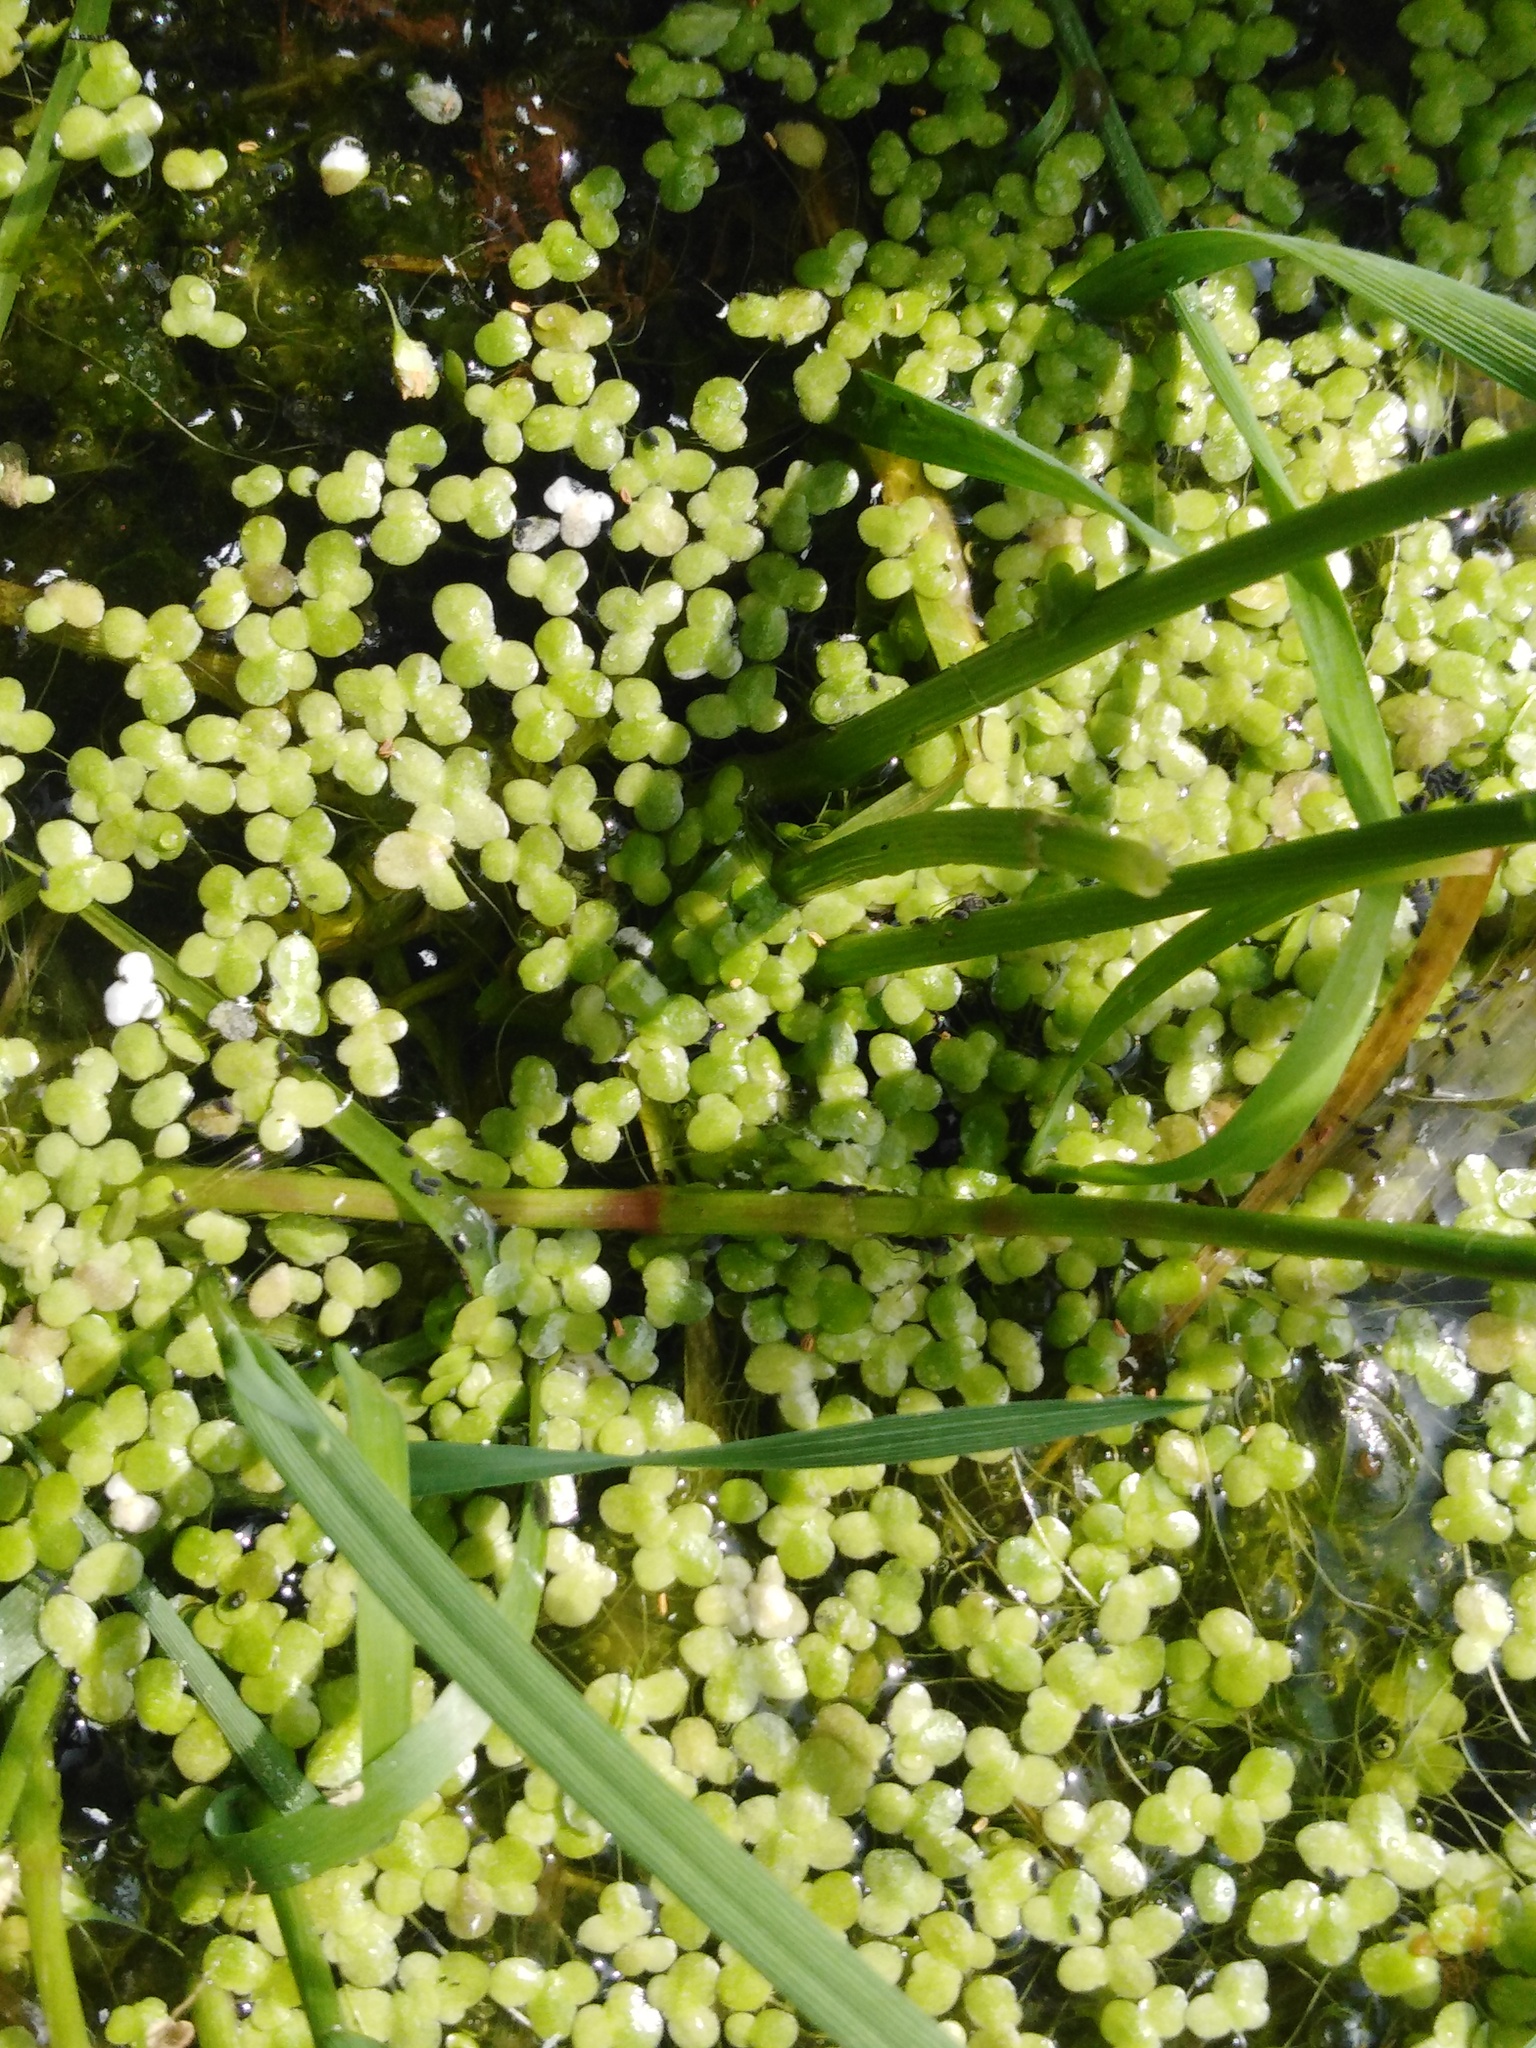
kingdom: Plantae
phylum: Tracheophyta
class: Liliopsida
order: Alismatales
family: Araceae
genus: Lemna
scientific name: Lemna minor
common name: Common duckweed
